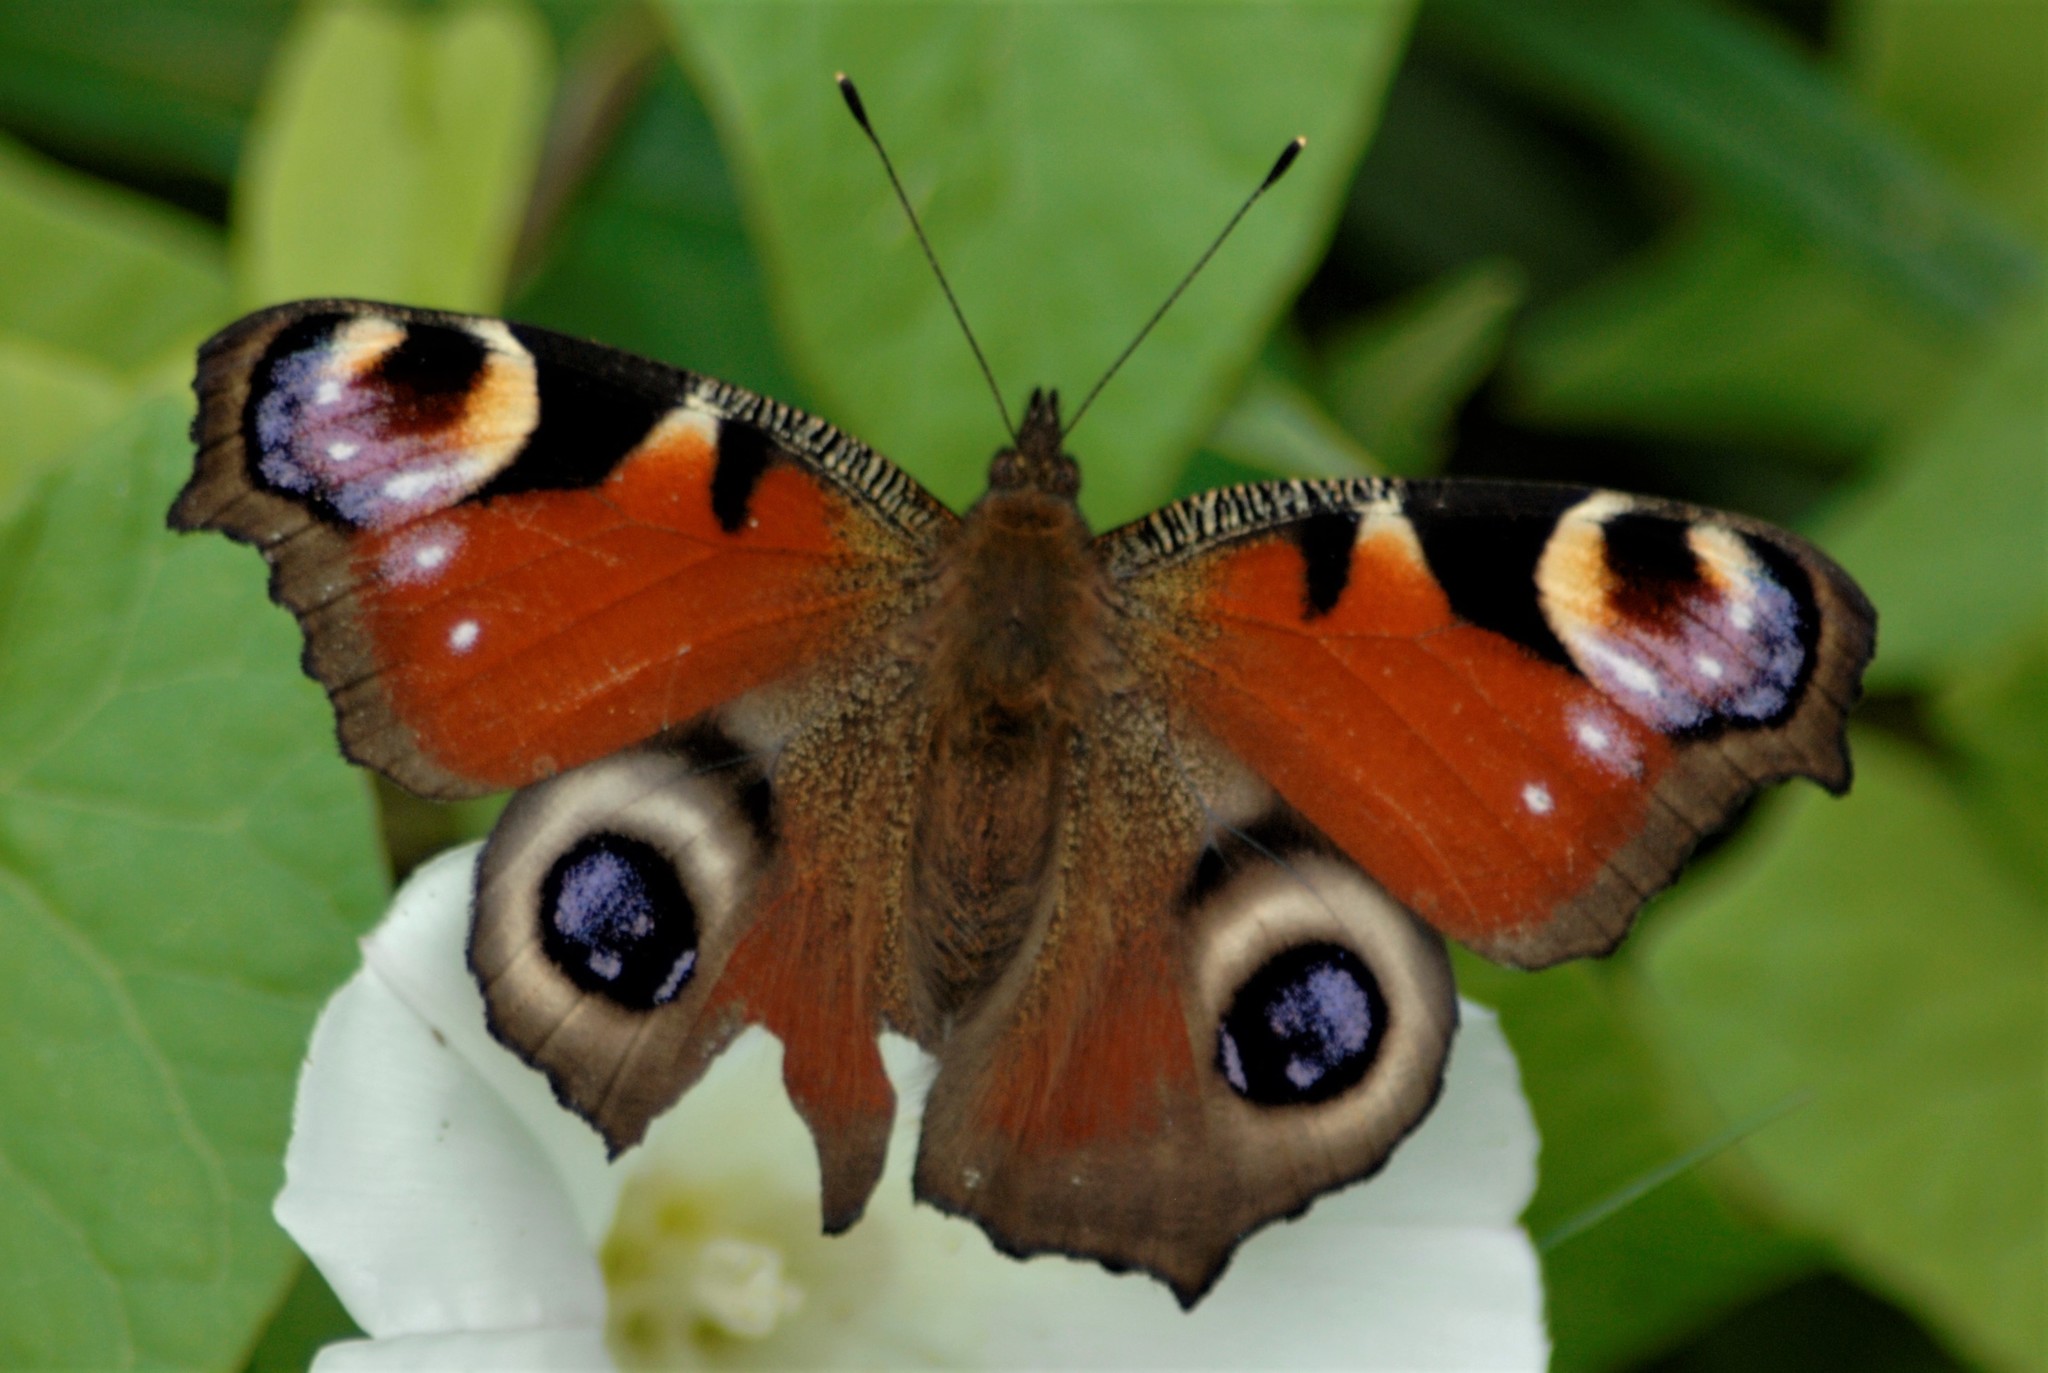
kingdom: Animalia
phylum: Arthropoda
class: Insecta
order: Lepidoptera
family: Nymphalidae
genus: Aglais
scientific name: Aglais io
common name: Peacock
